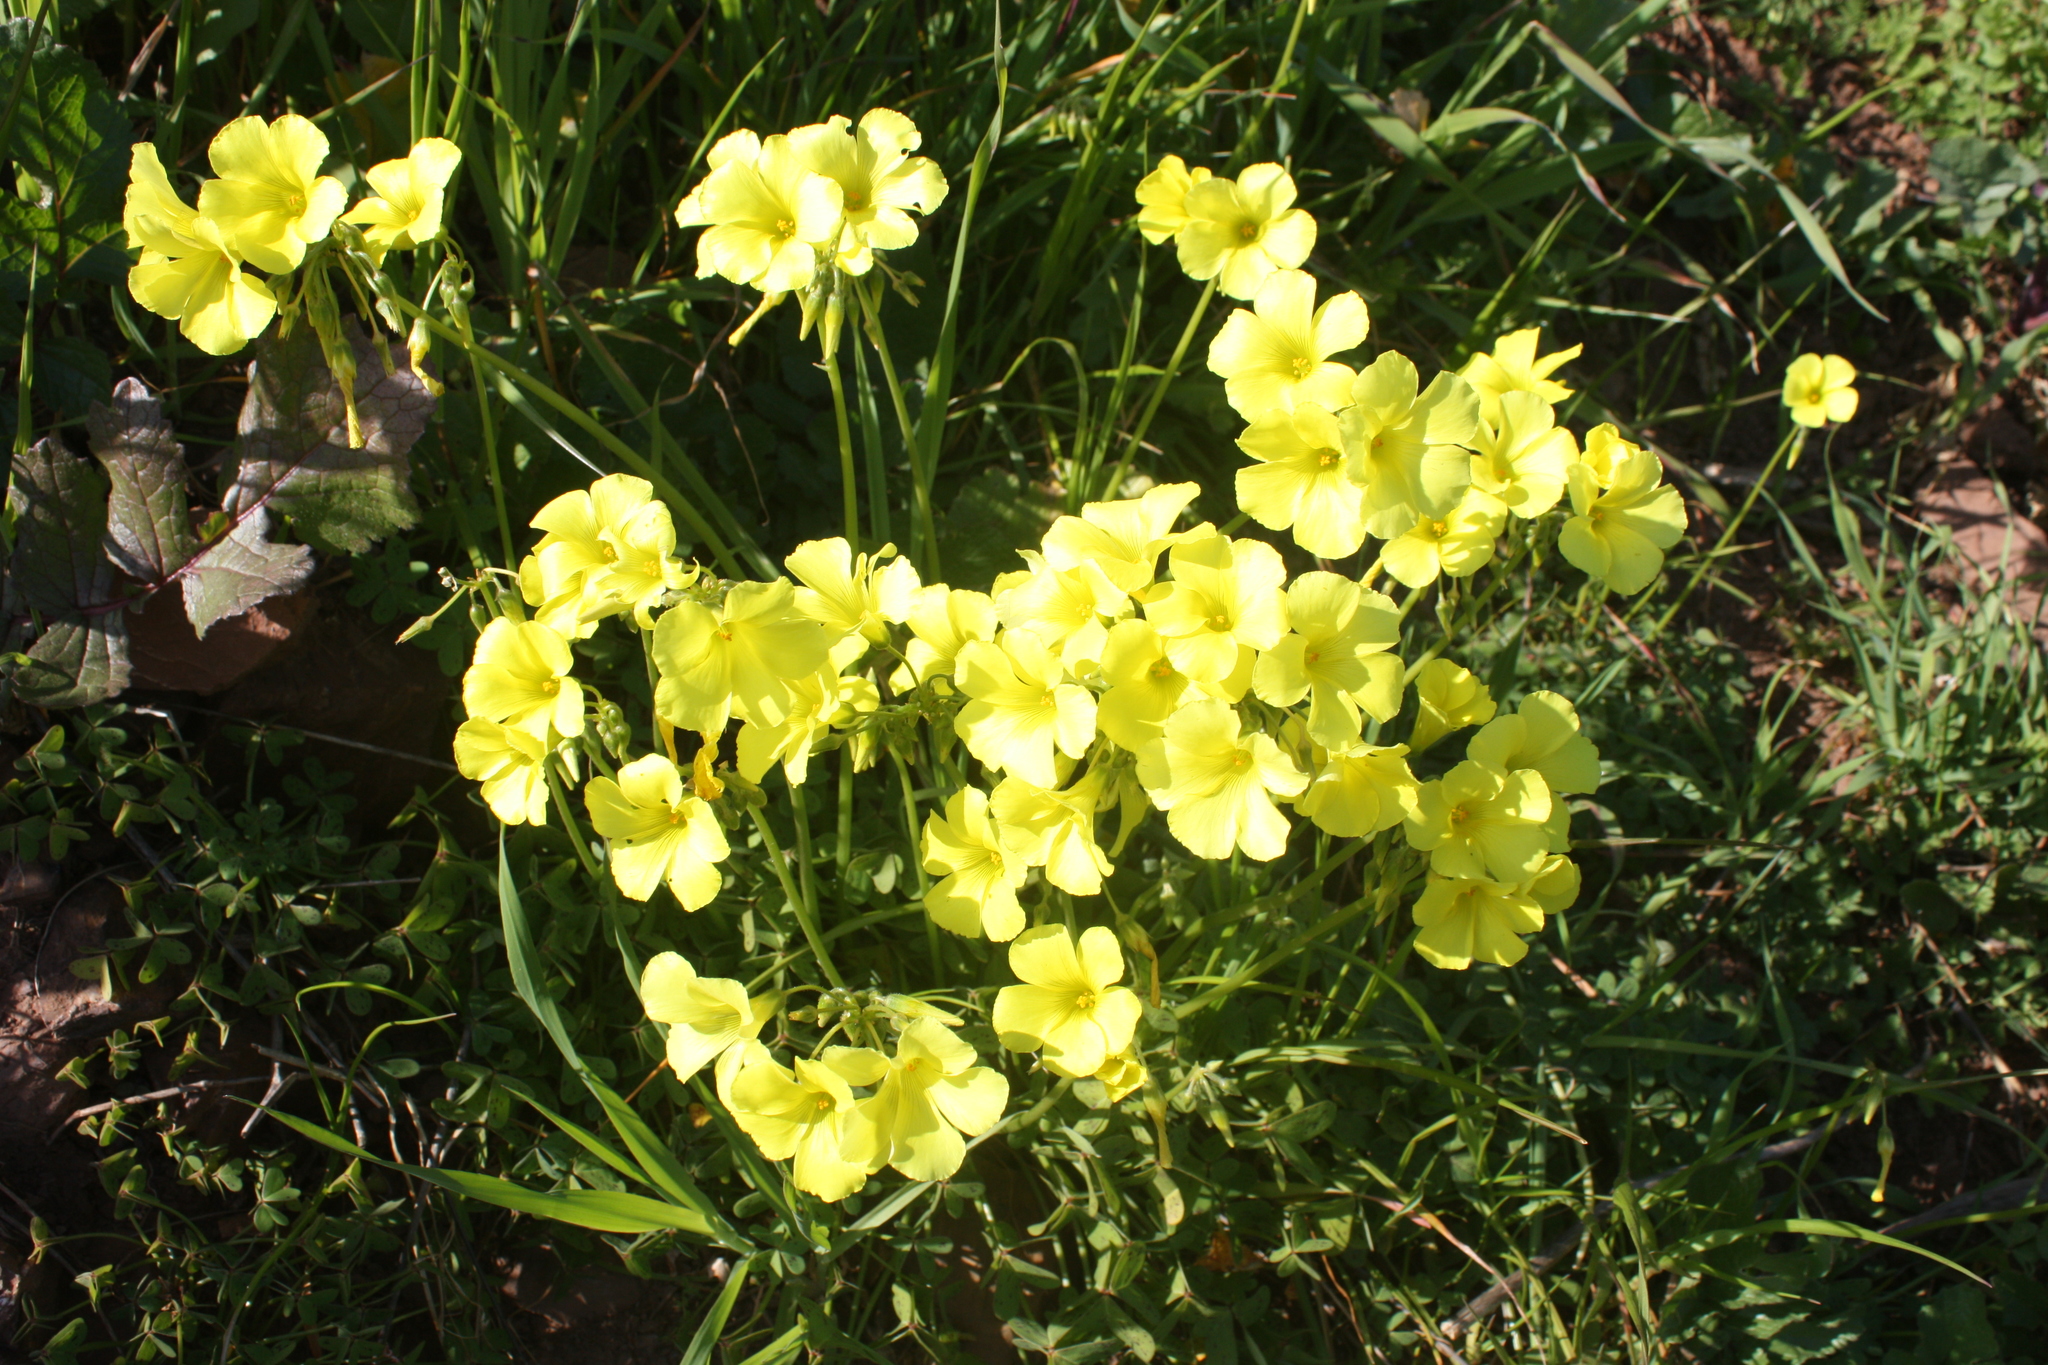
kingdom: Plantae
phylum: Tracheophyta
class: Magnoliopsida
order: Oxalidales
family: Oxalidaceae
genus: Oxalis
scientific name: Oxalis pes-caprae
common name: Bermuda-buttercup
